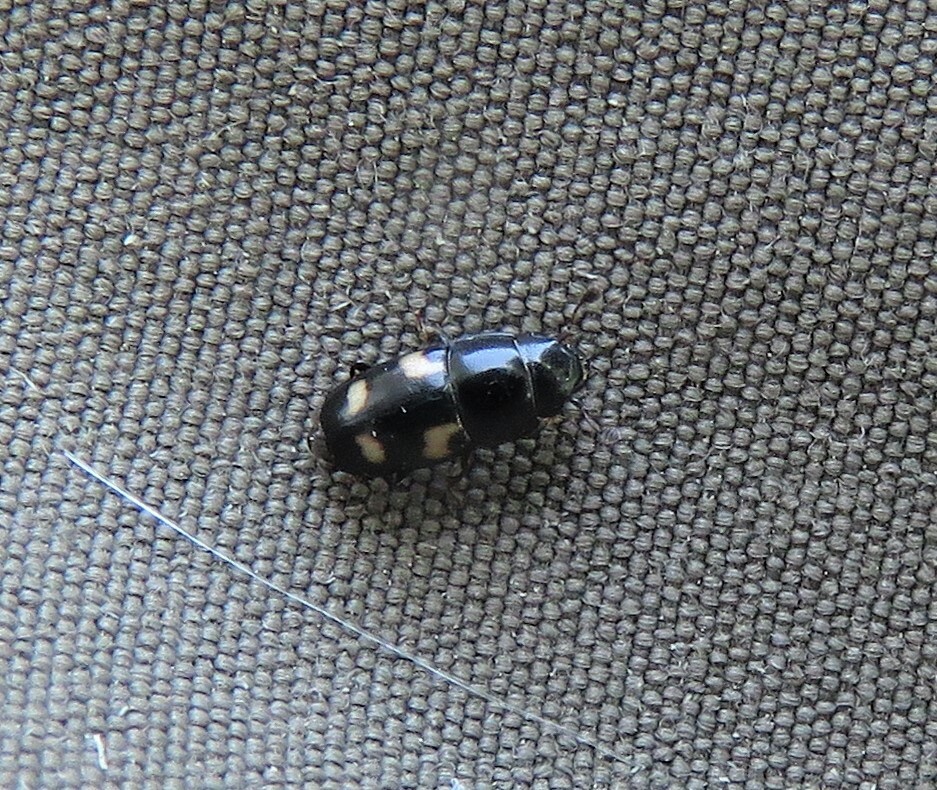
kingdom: Animalia
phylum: Arthropoda
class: Insecta
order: Coleoptera
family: Nitidulidae
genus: Glischrochilus
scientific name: Glischrochilus quadrisignatus
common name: Picnic beetle
